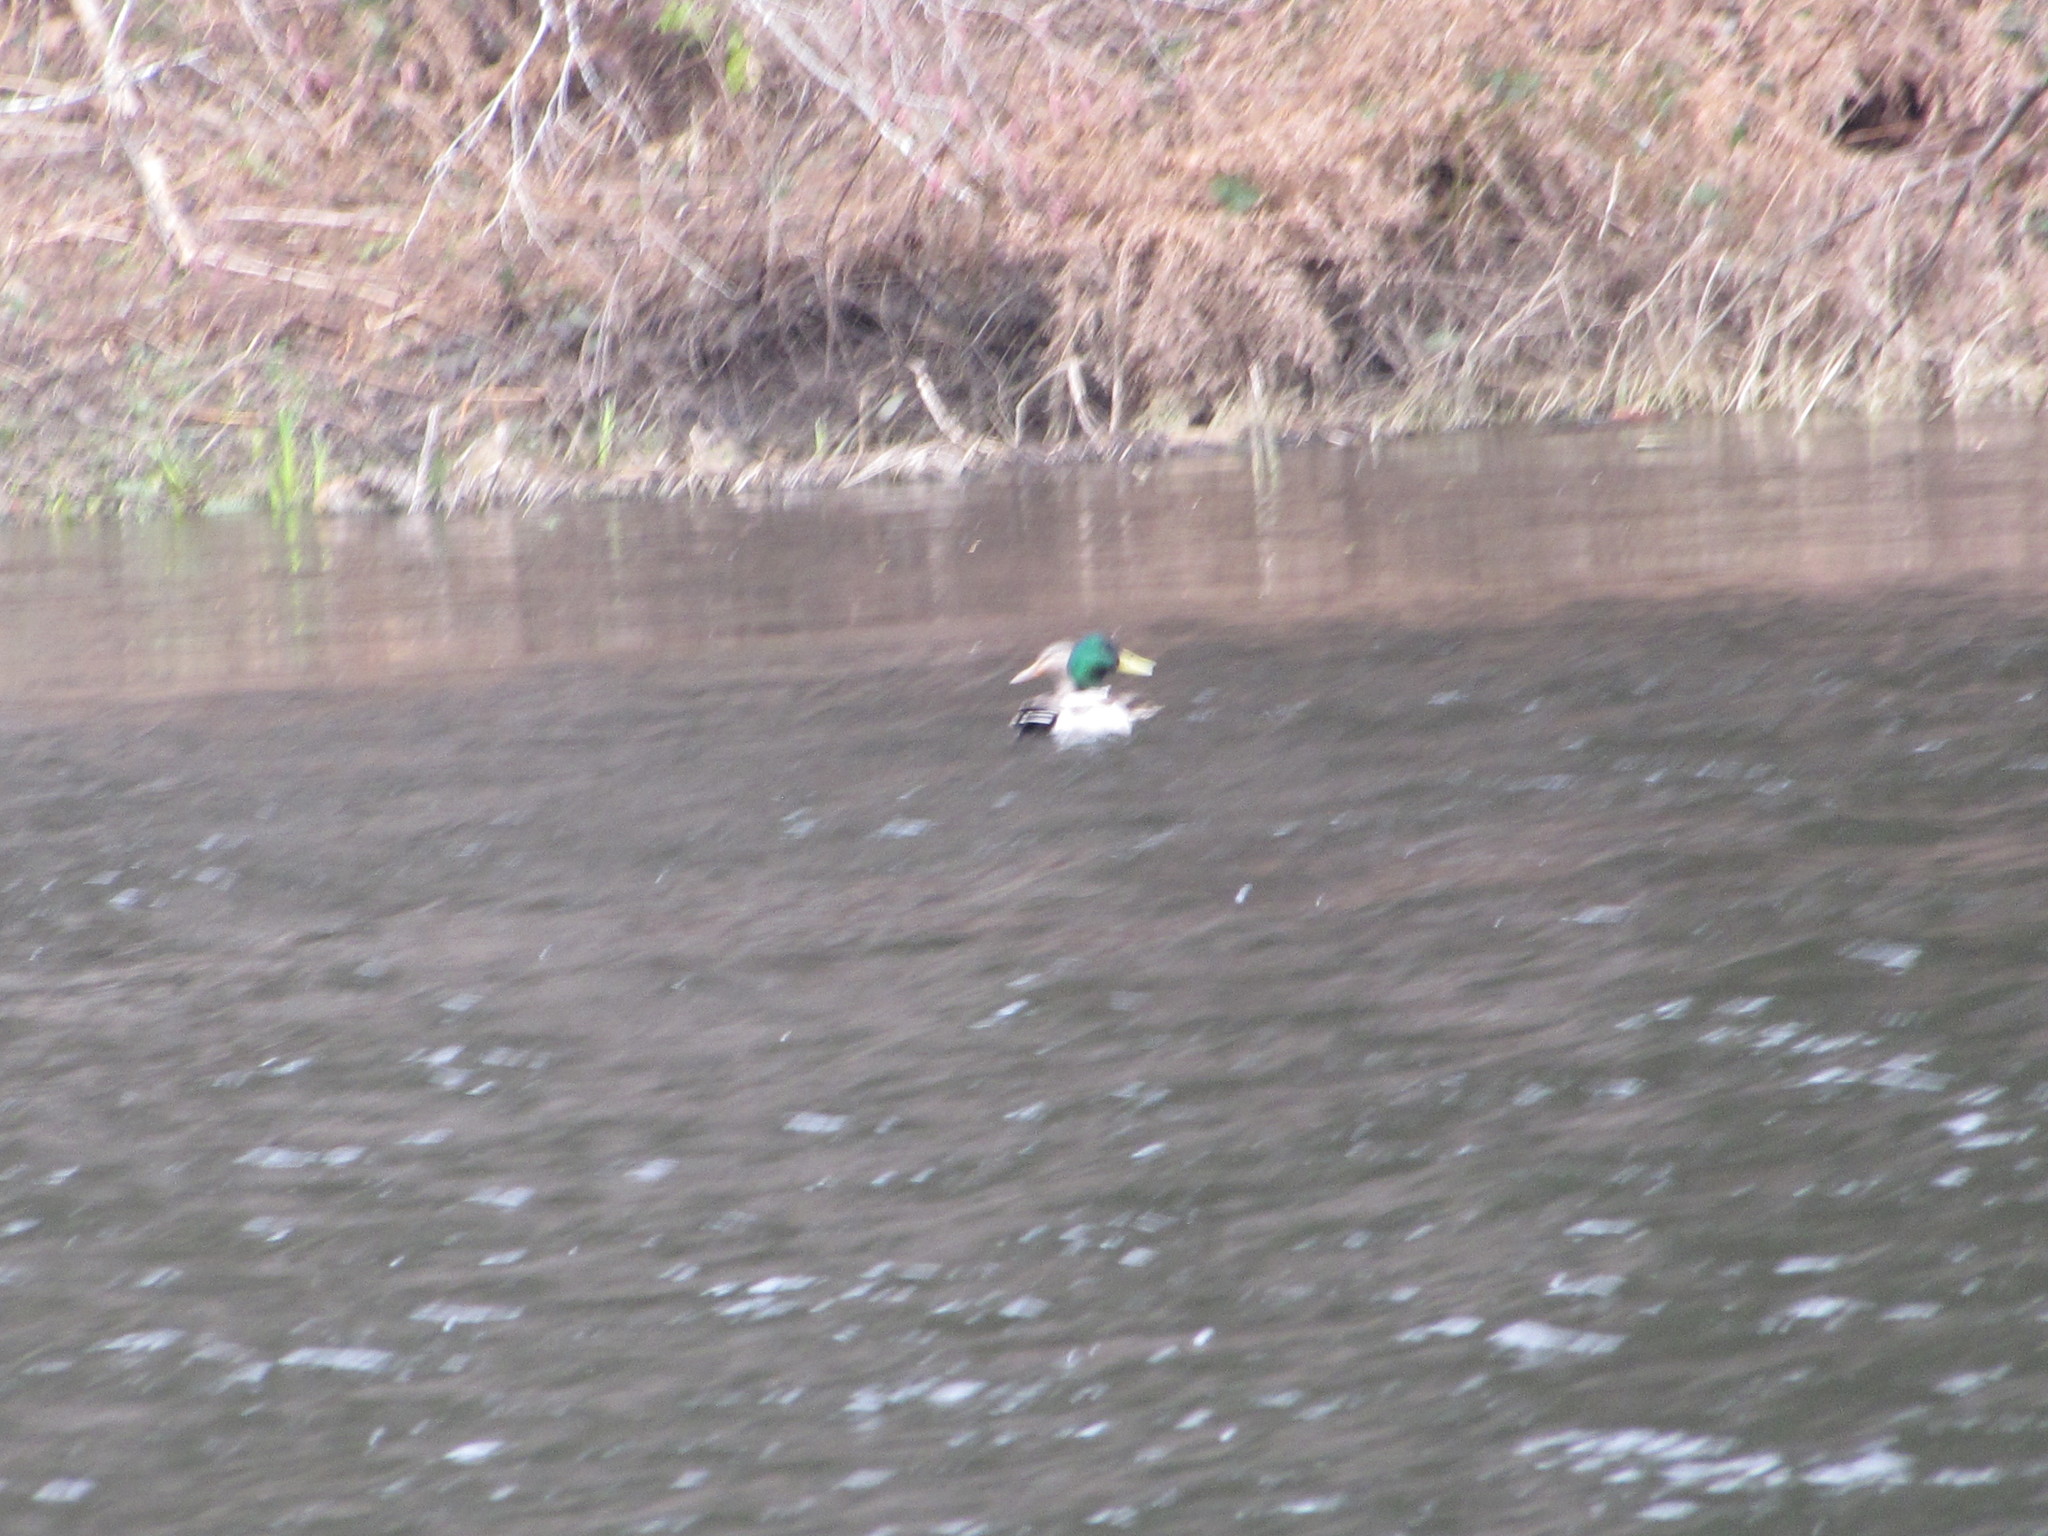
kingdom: Animalia
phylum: Chordata
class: Aves
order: Anseriformes
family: Anatidae
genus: Anas
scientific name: Anas platyrhynchos
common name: Mallard
